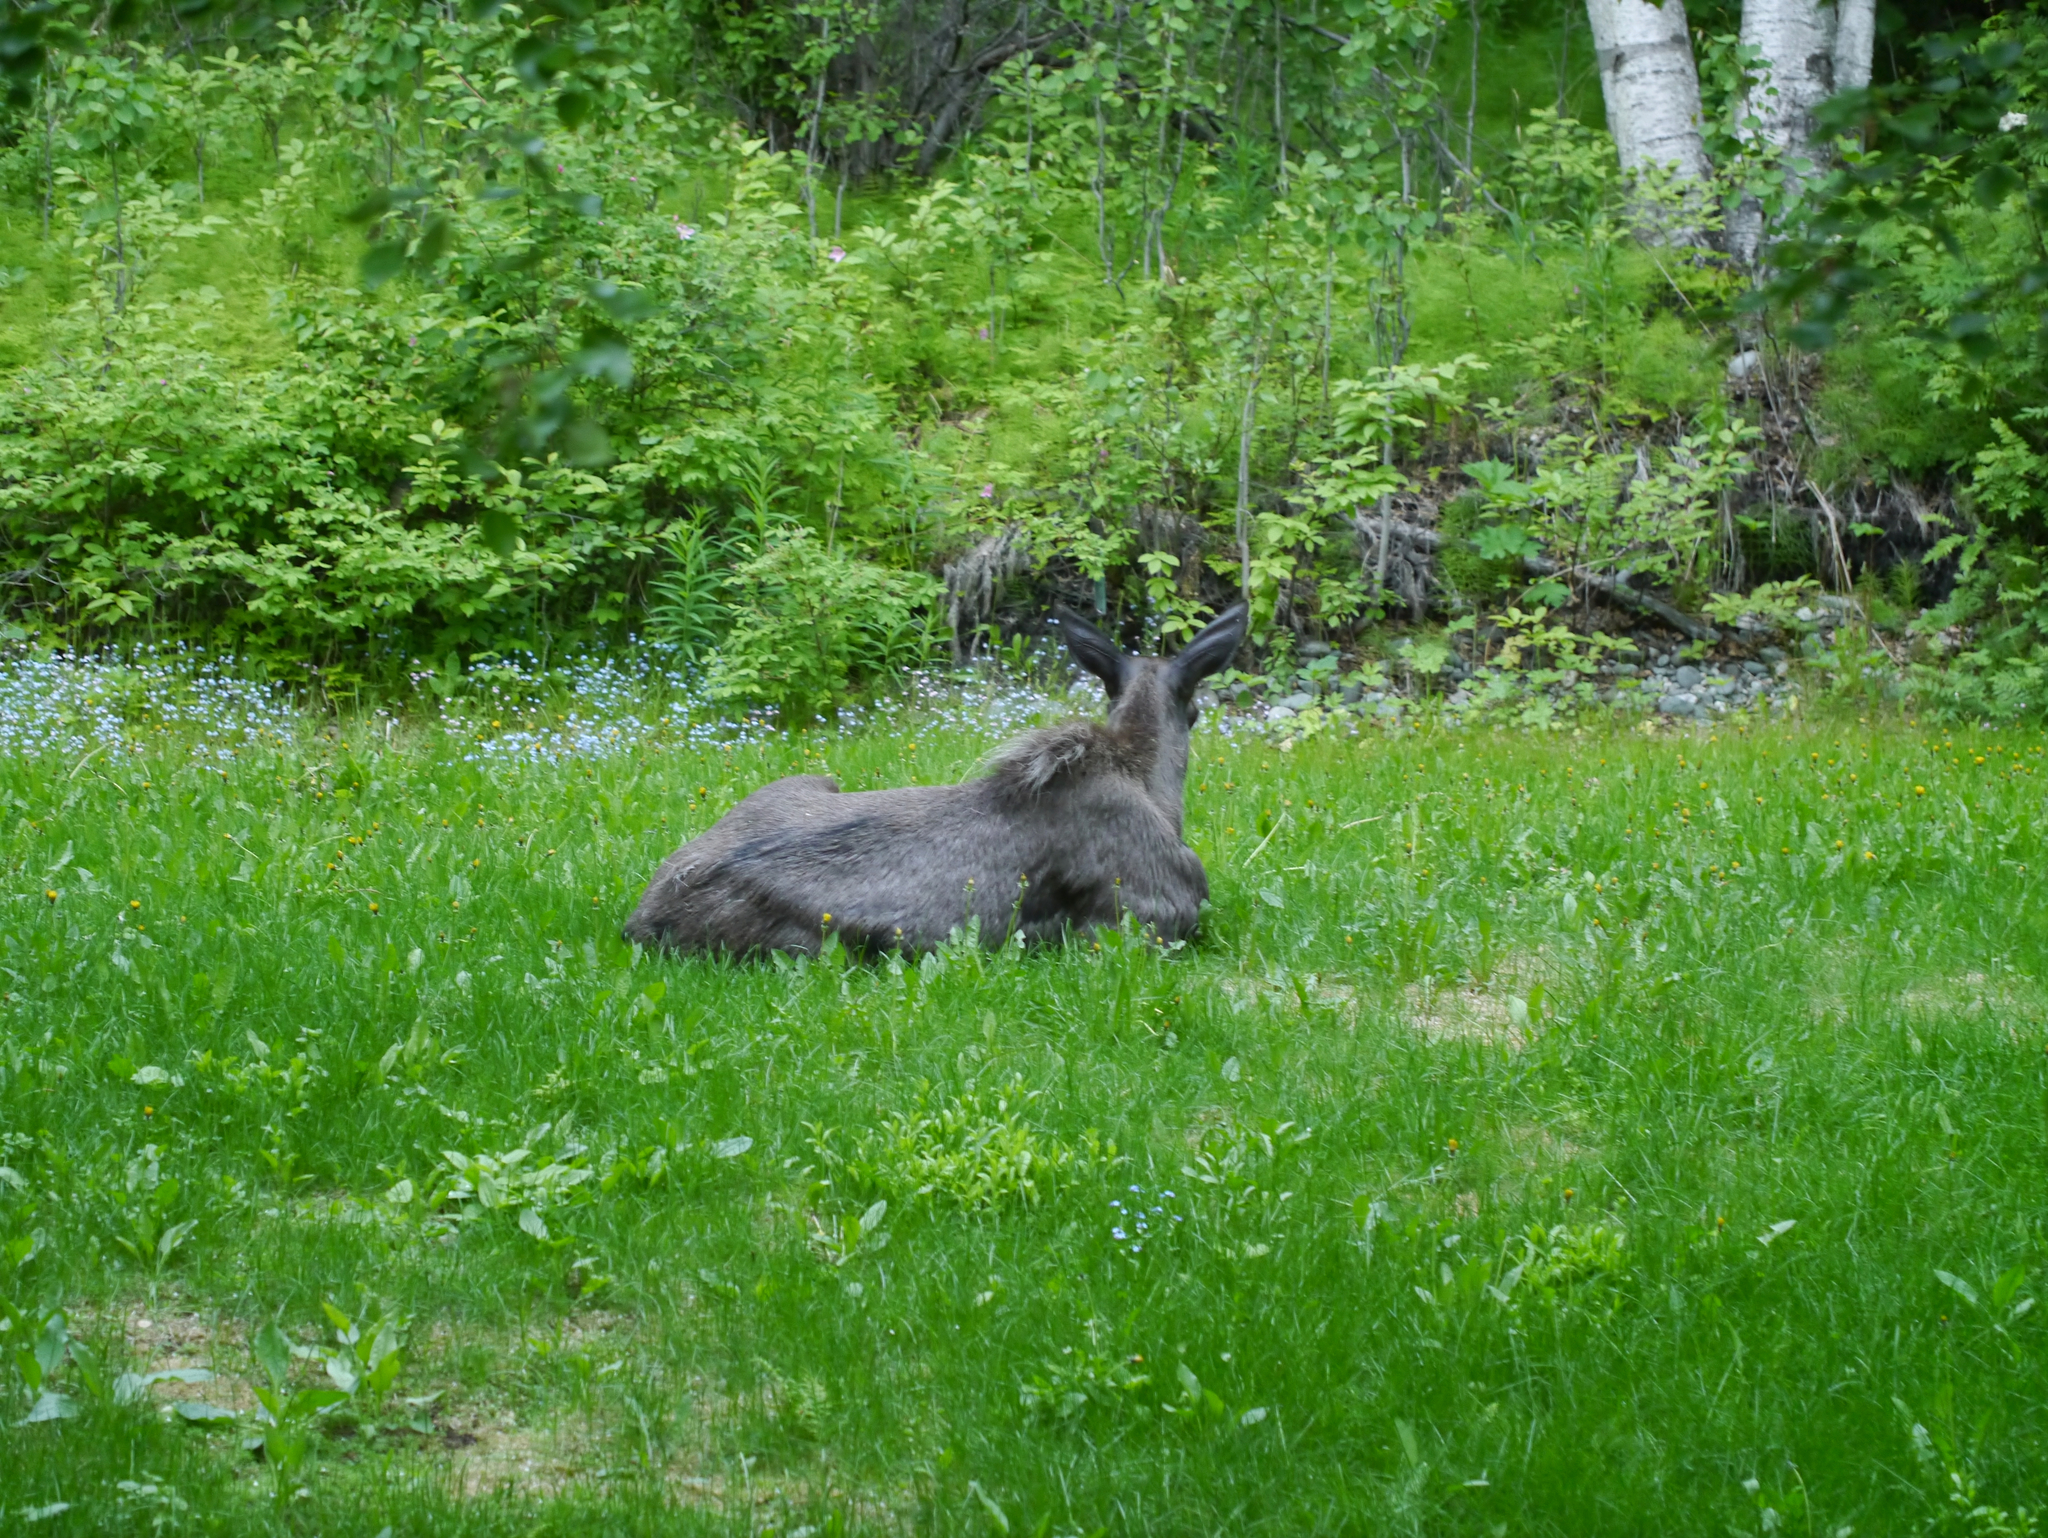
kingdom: Animalia
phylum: Chordata
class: Mammalia
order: Artiodactyla
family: Cervidae
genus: Alces
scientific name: Alces alces
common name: Moose
